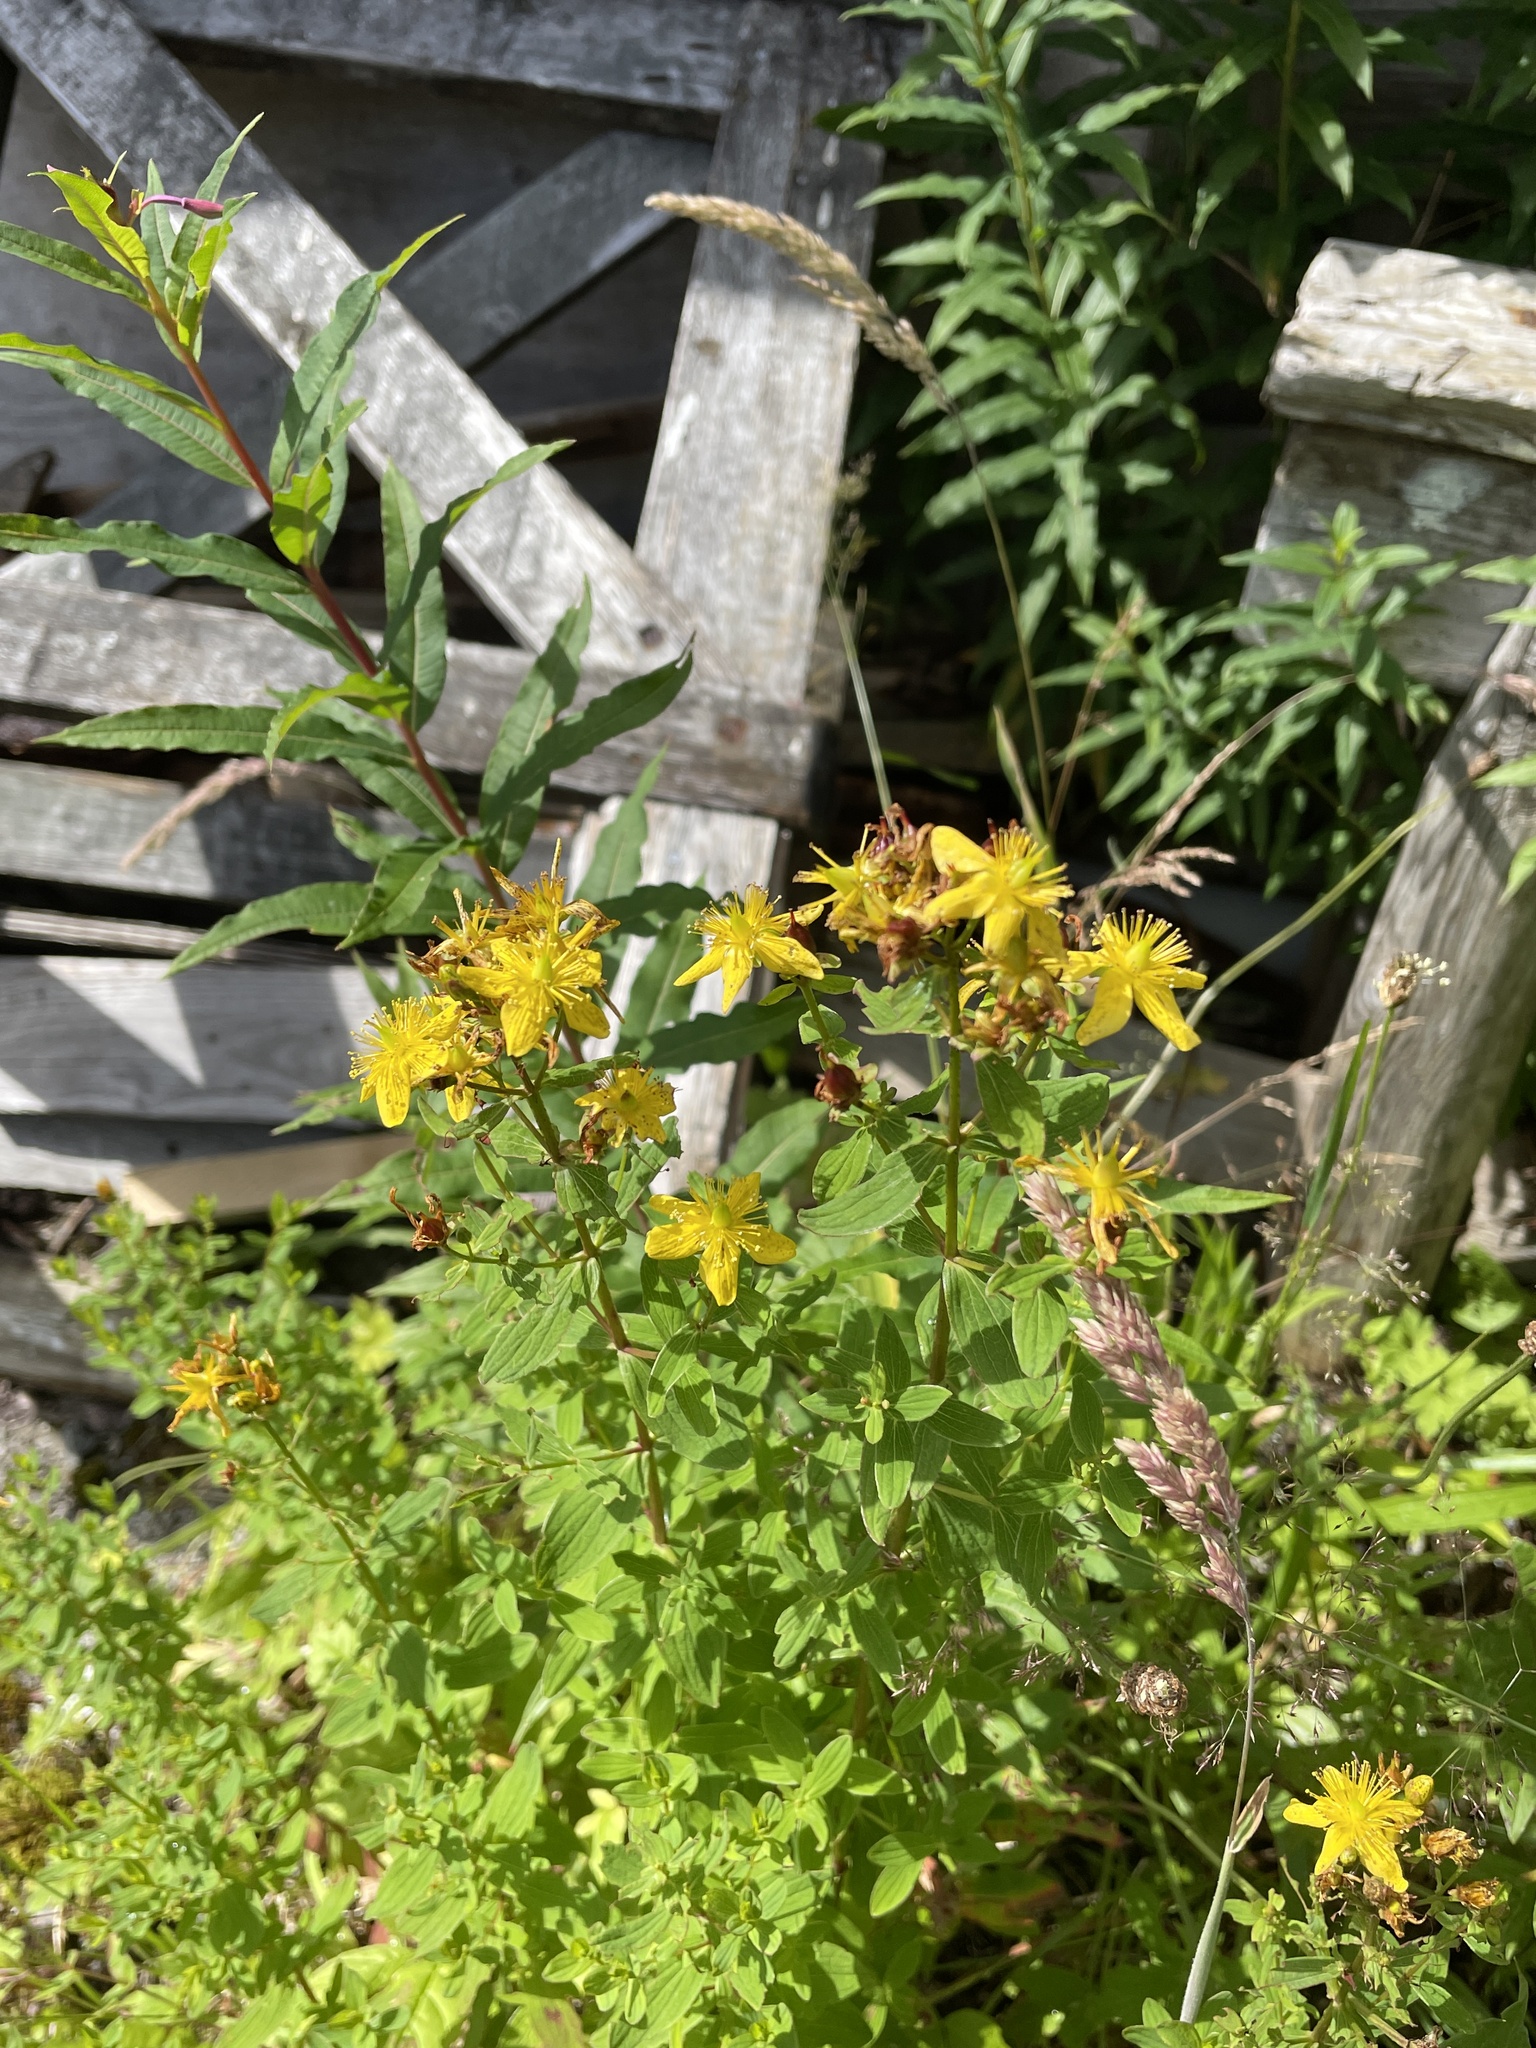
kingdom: Plantae
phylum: Tracheophyta
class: Magnoliopsida
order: Malpighiales
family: Hypericaceae
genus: Hypericum
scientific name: Hypericum maculatum
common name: Imperforate st. john's-wort
